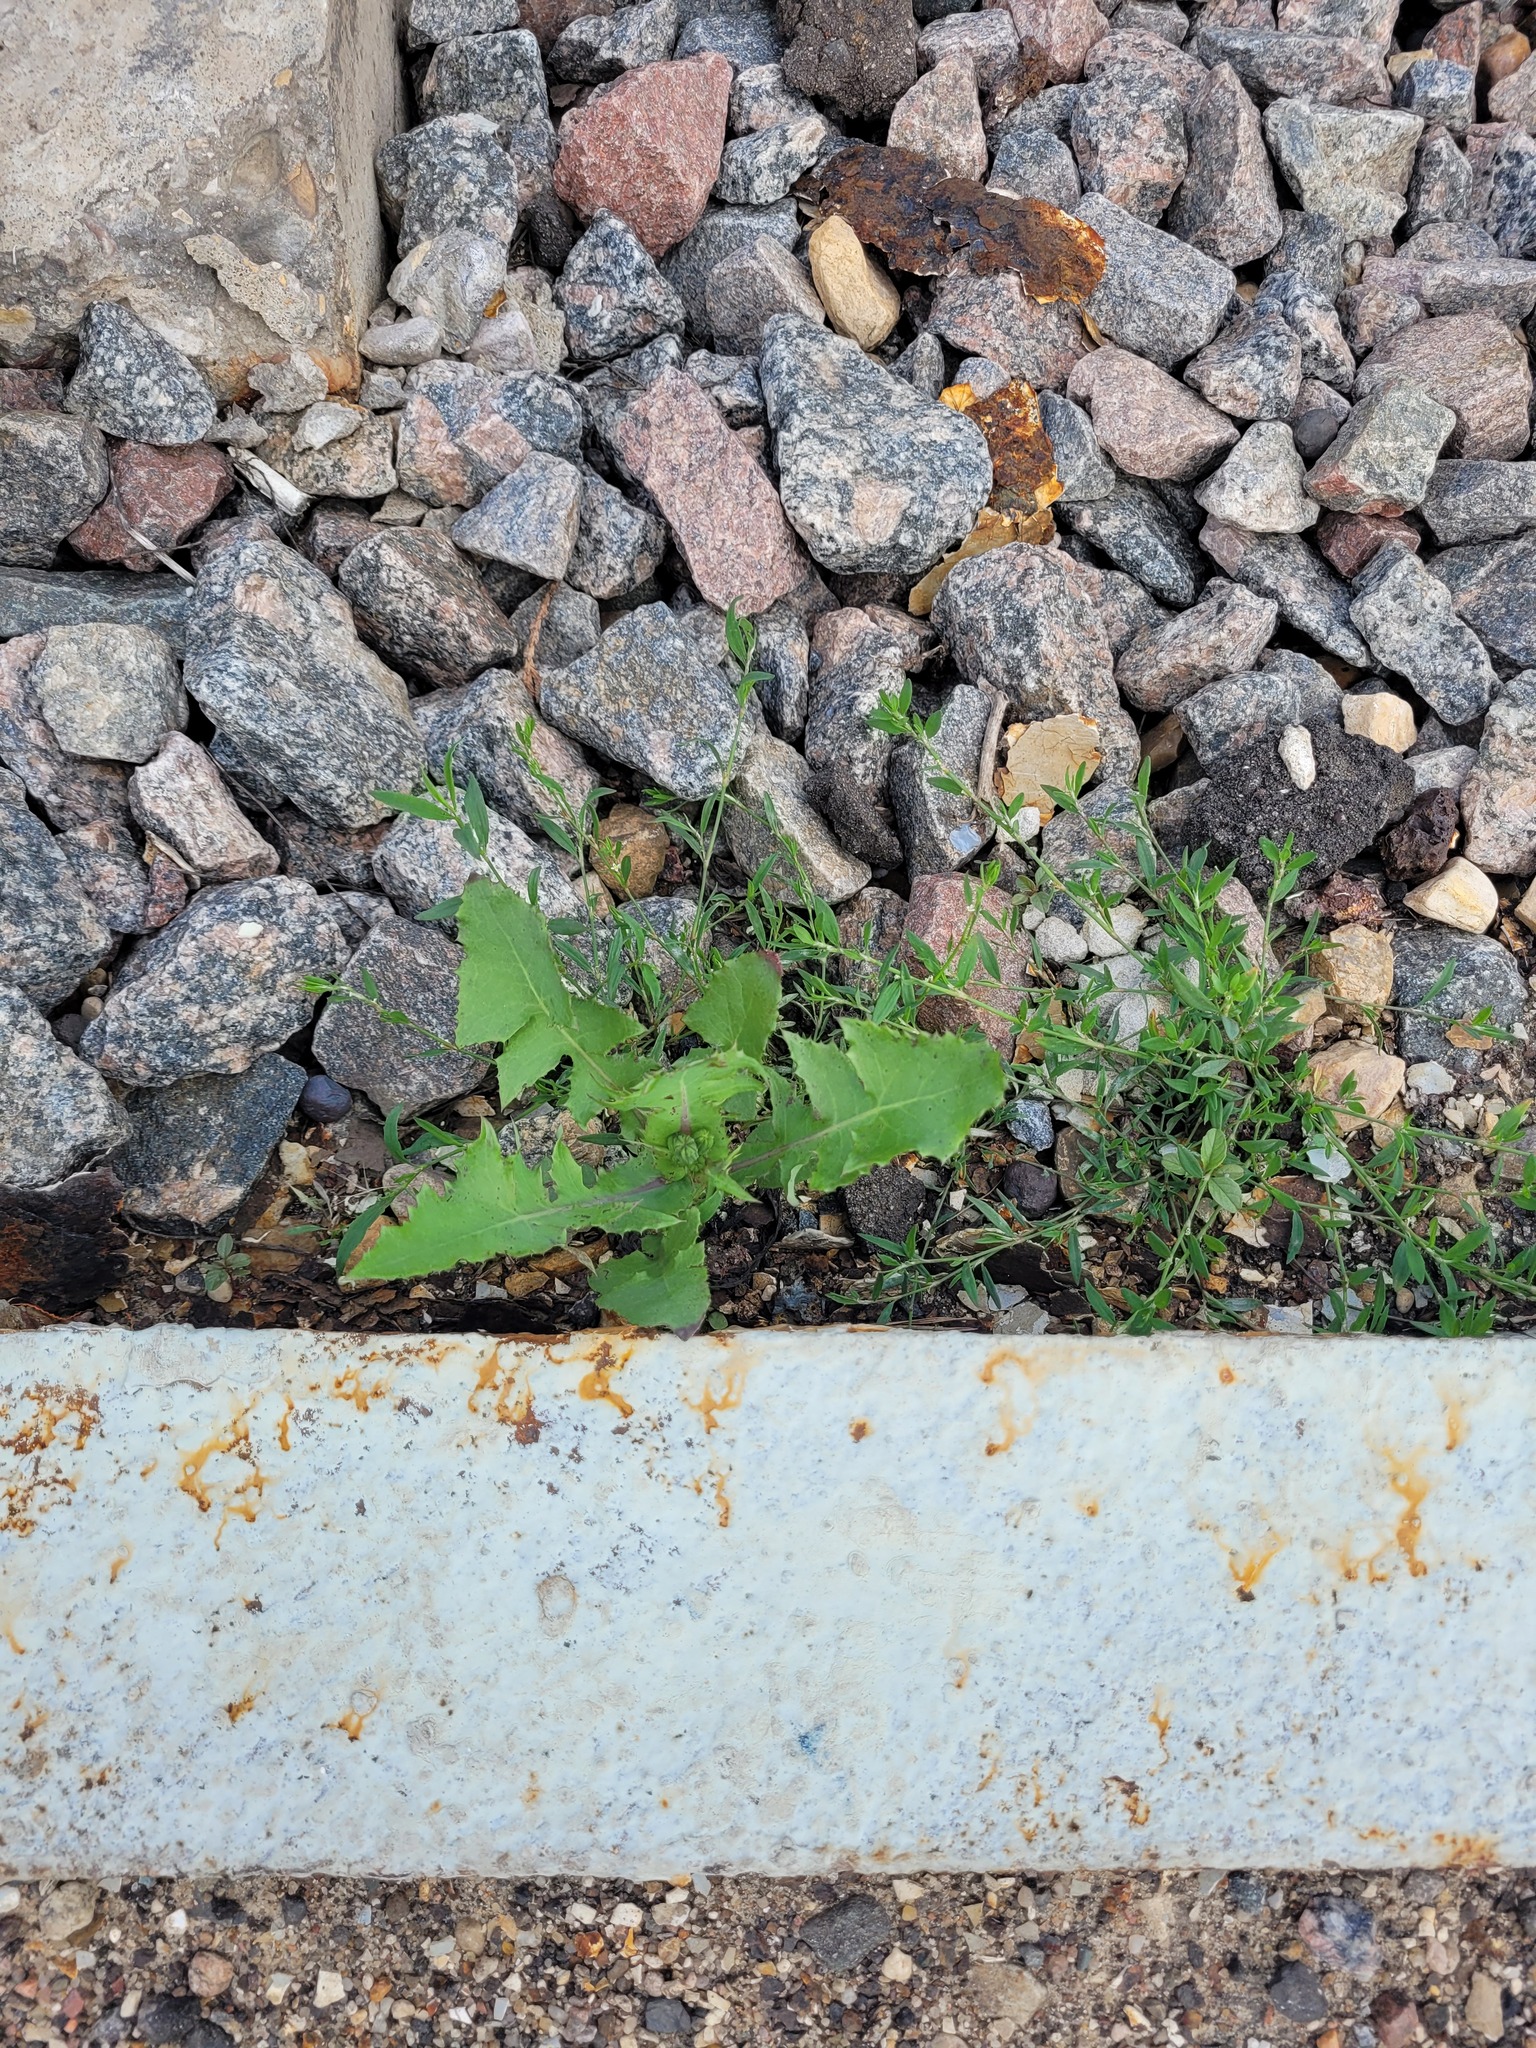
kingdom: Plantae
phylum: Tracheophyta
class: Magnoliopsida
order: Asterales
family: Asteraceae
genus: Sonchus
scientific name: Sonchus oleraceus
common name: Common sowthistle
